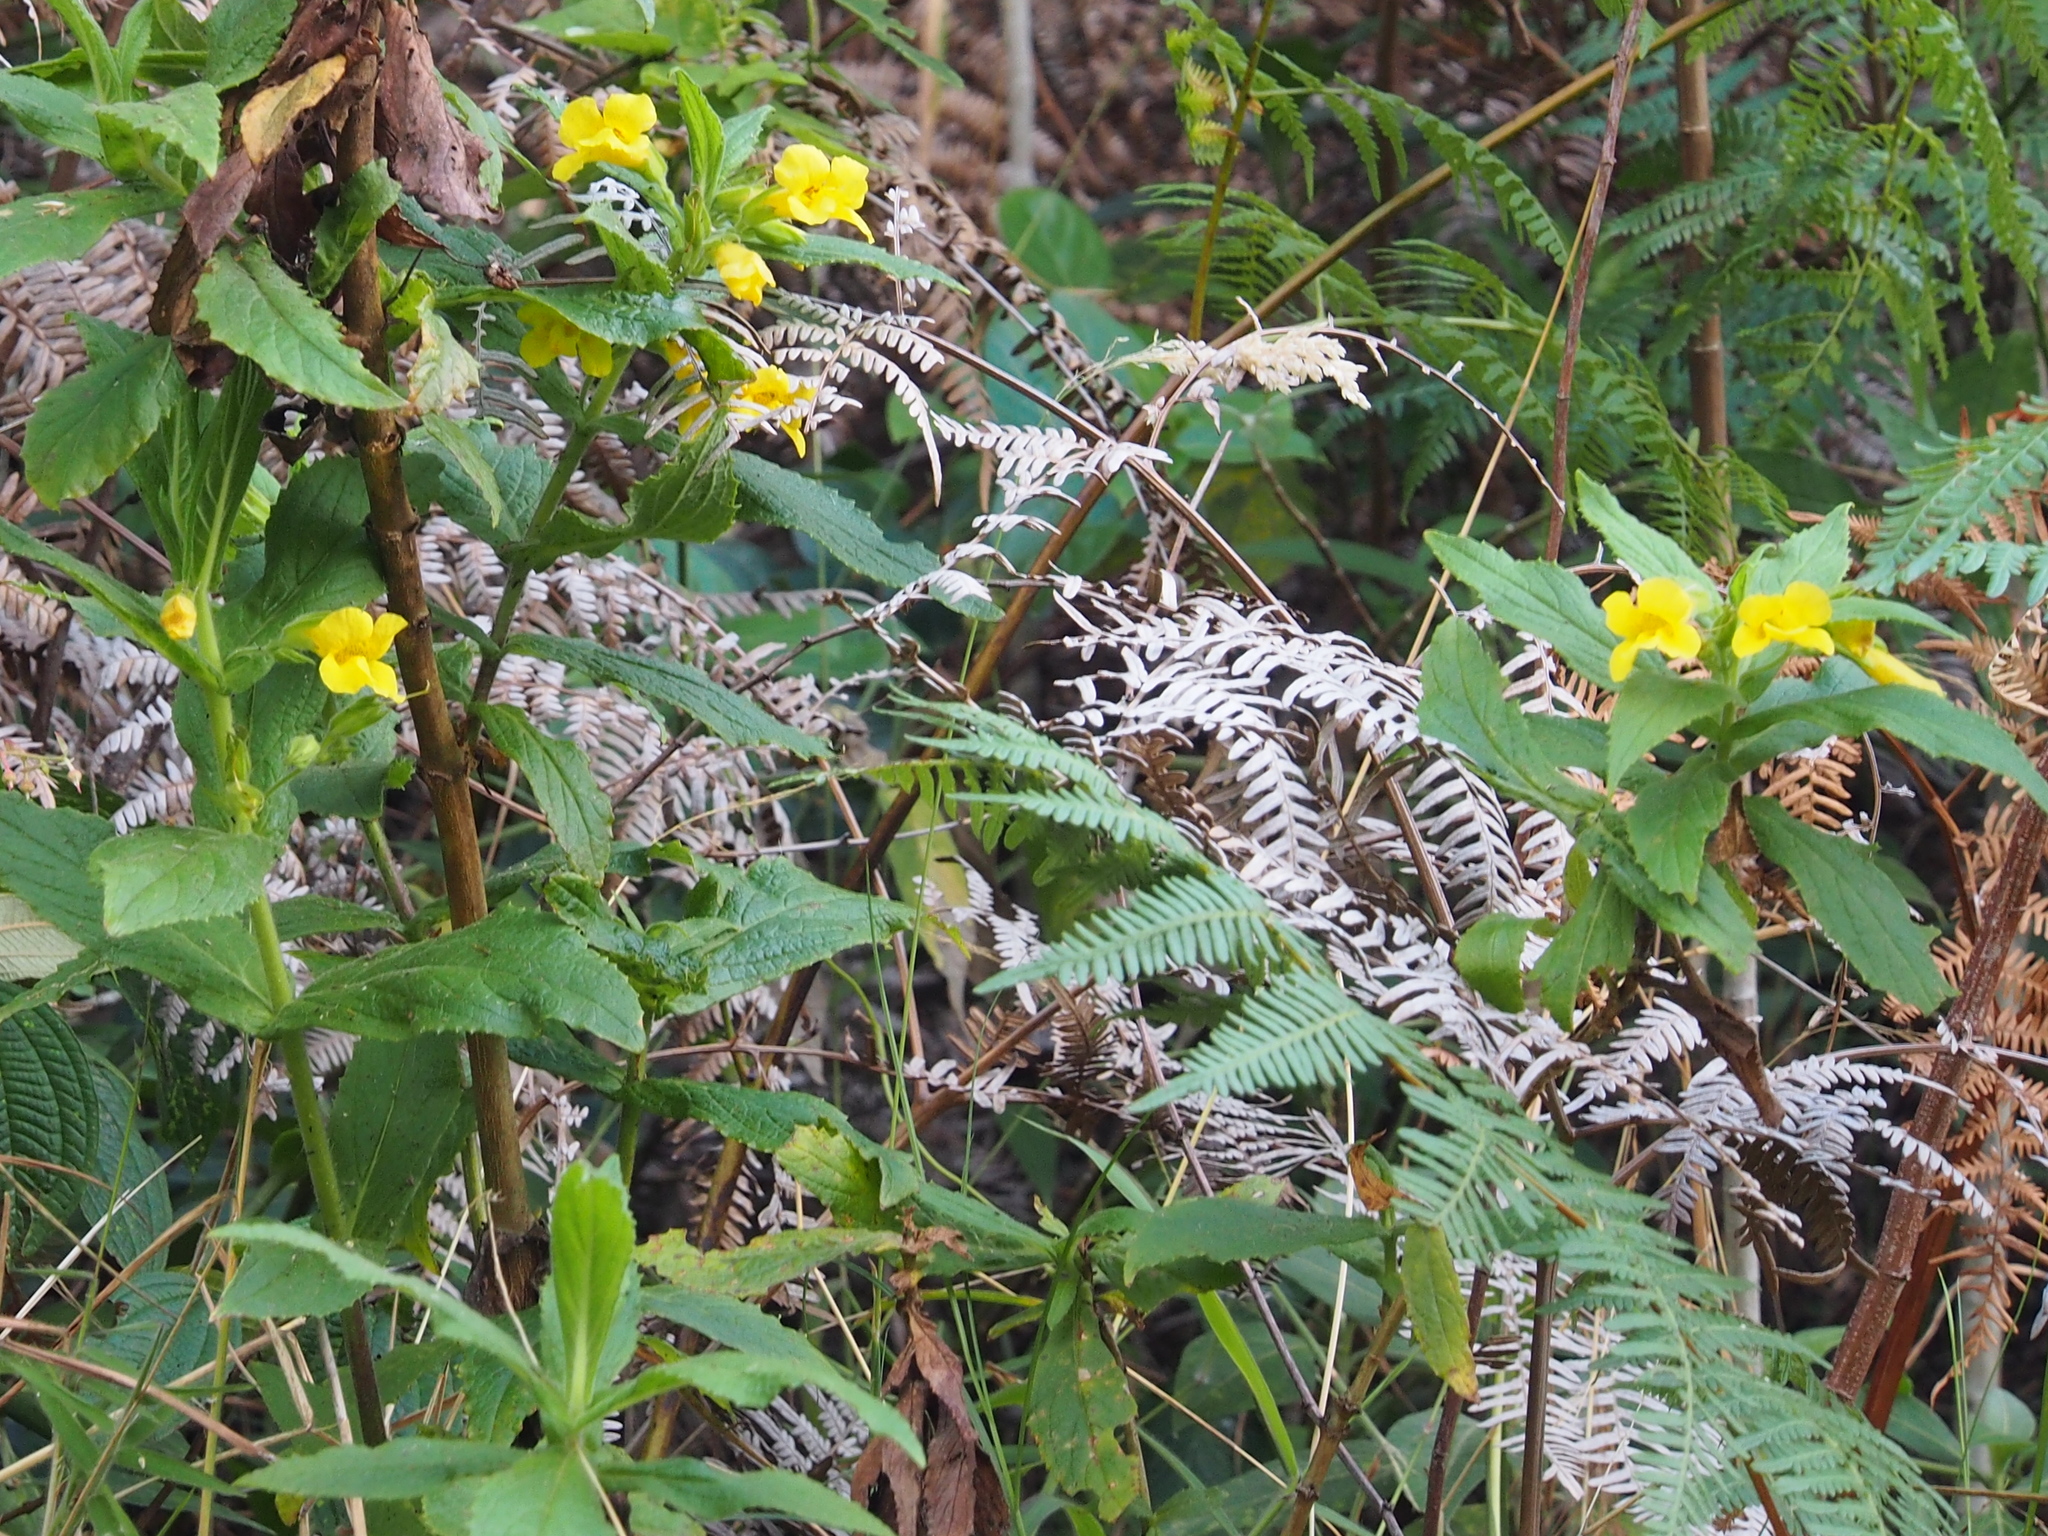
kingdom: Plantae
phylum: Tracheophyta
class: Magnoliopsida
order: Lamiales
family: Phrymaceae
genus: Hemichaena
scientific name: Hemichaena fruticosa
